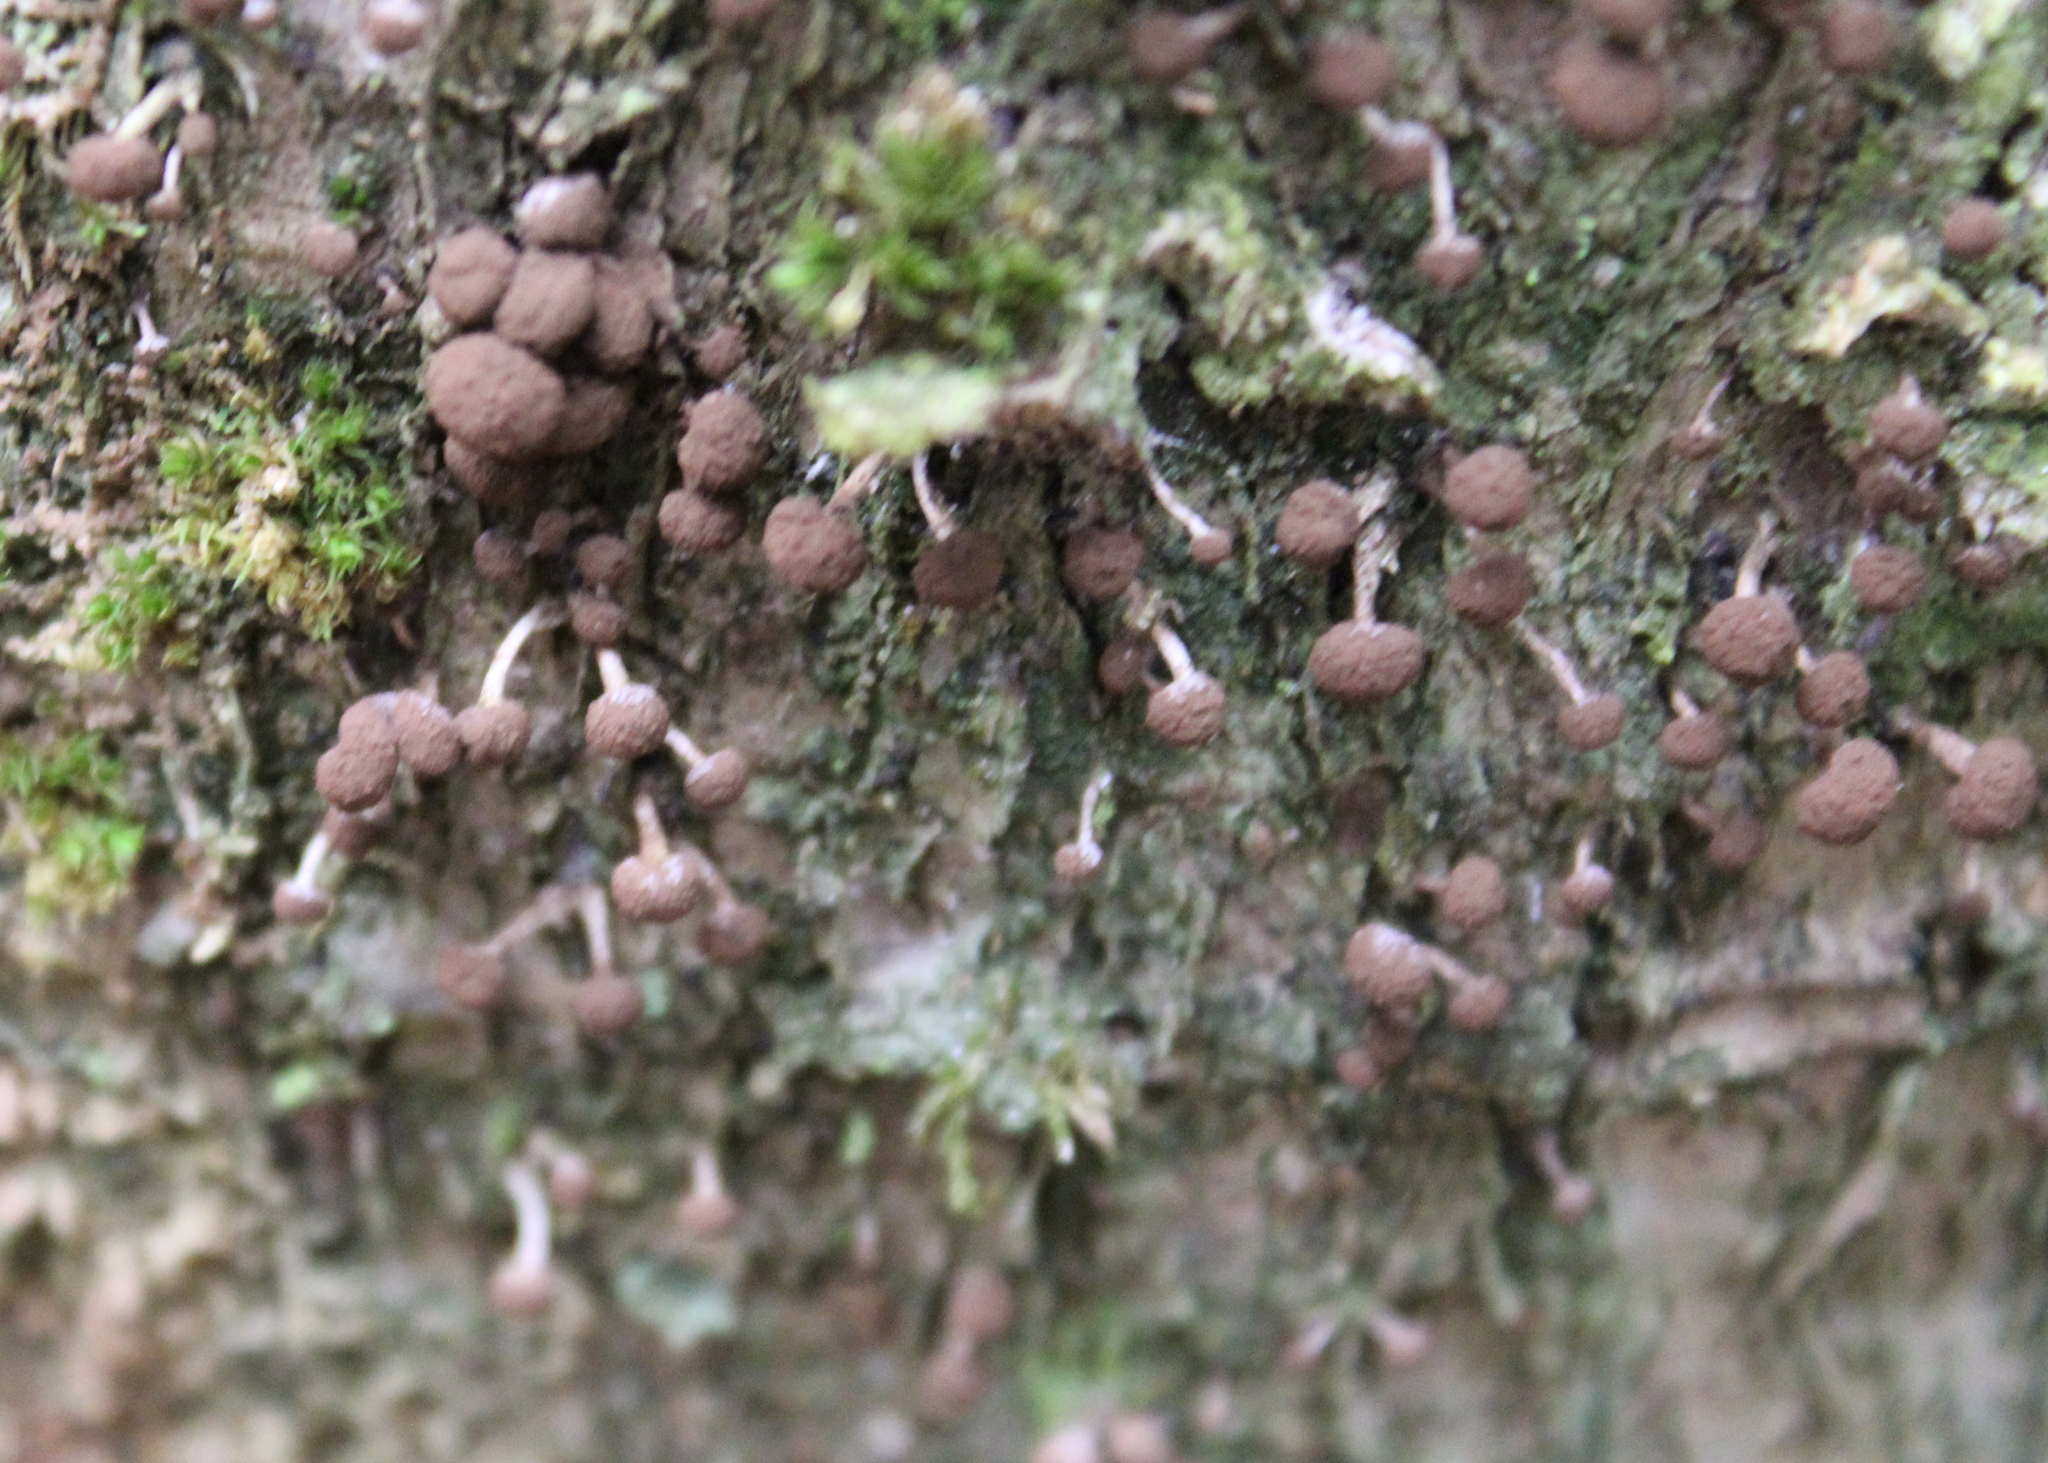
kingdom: Fungi
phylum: Basidiomycota
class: Atractiellomycetes
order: Atractiellales
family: Phleogenaceae
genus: Phleogena
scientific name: Phleogena faginea
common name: Fenugreek stalkball
